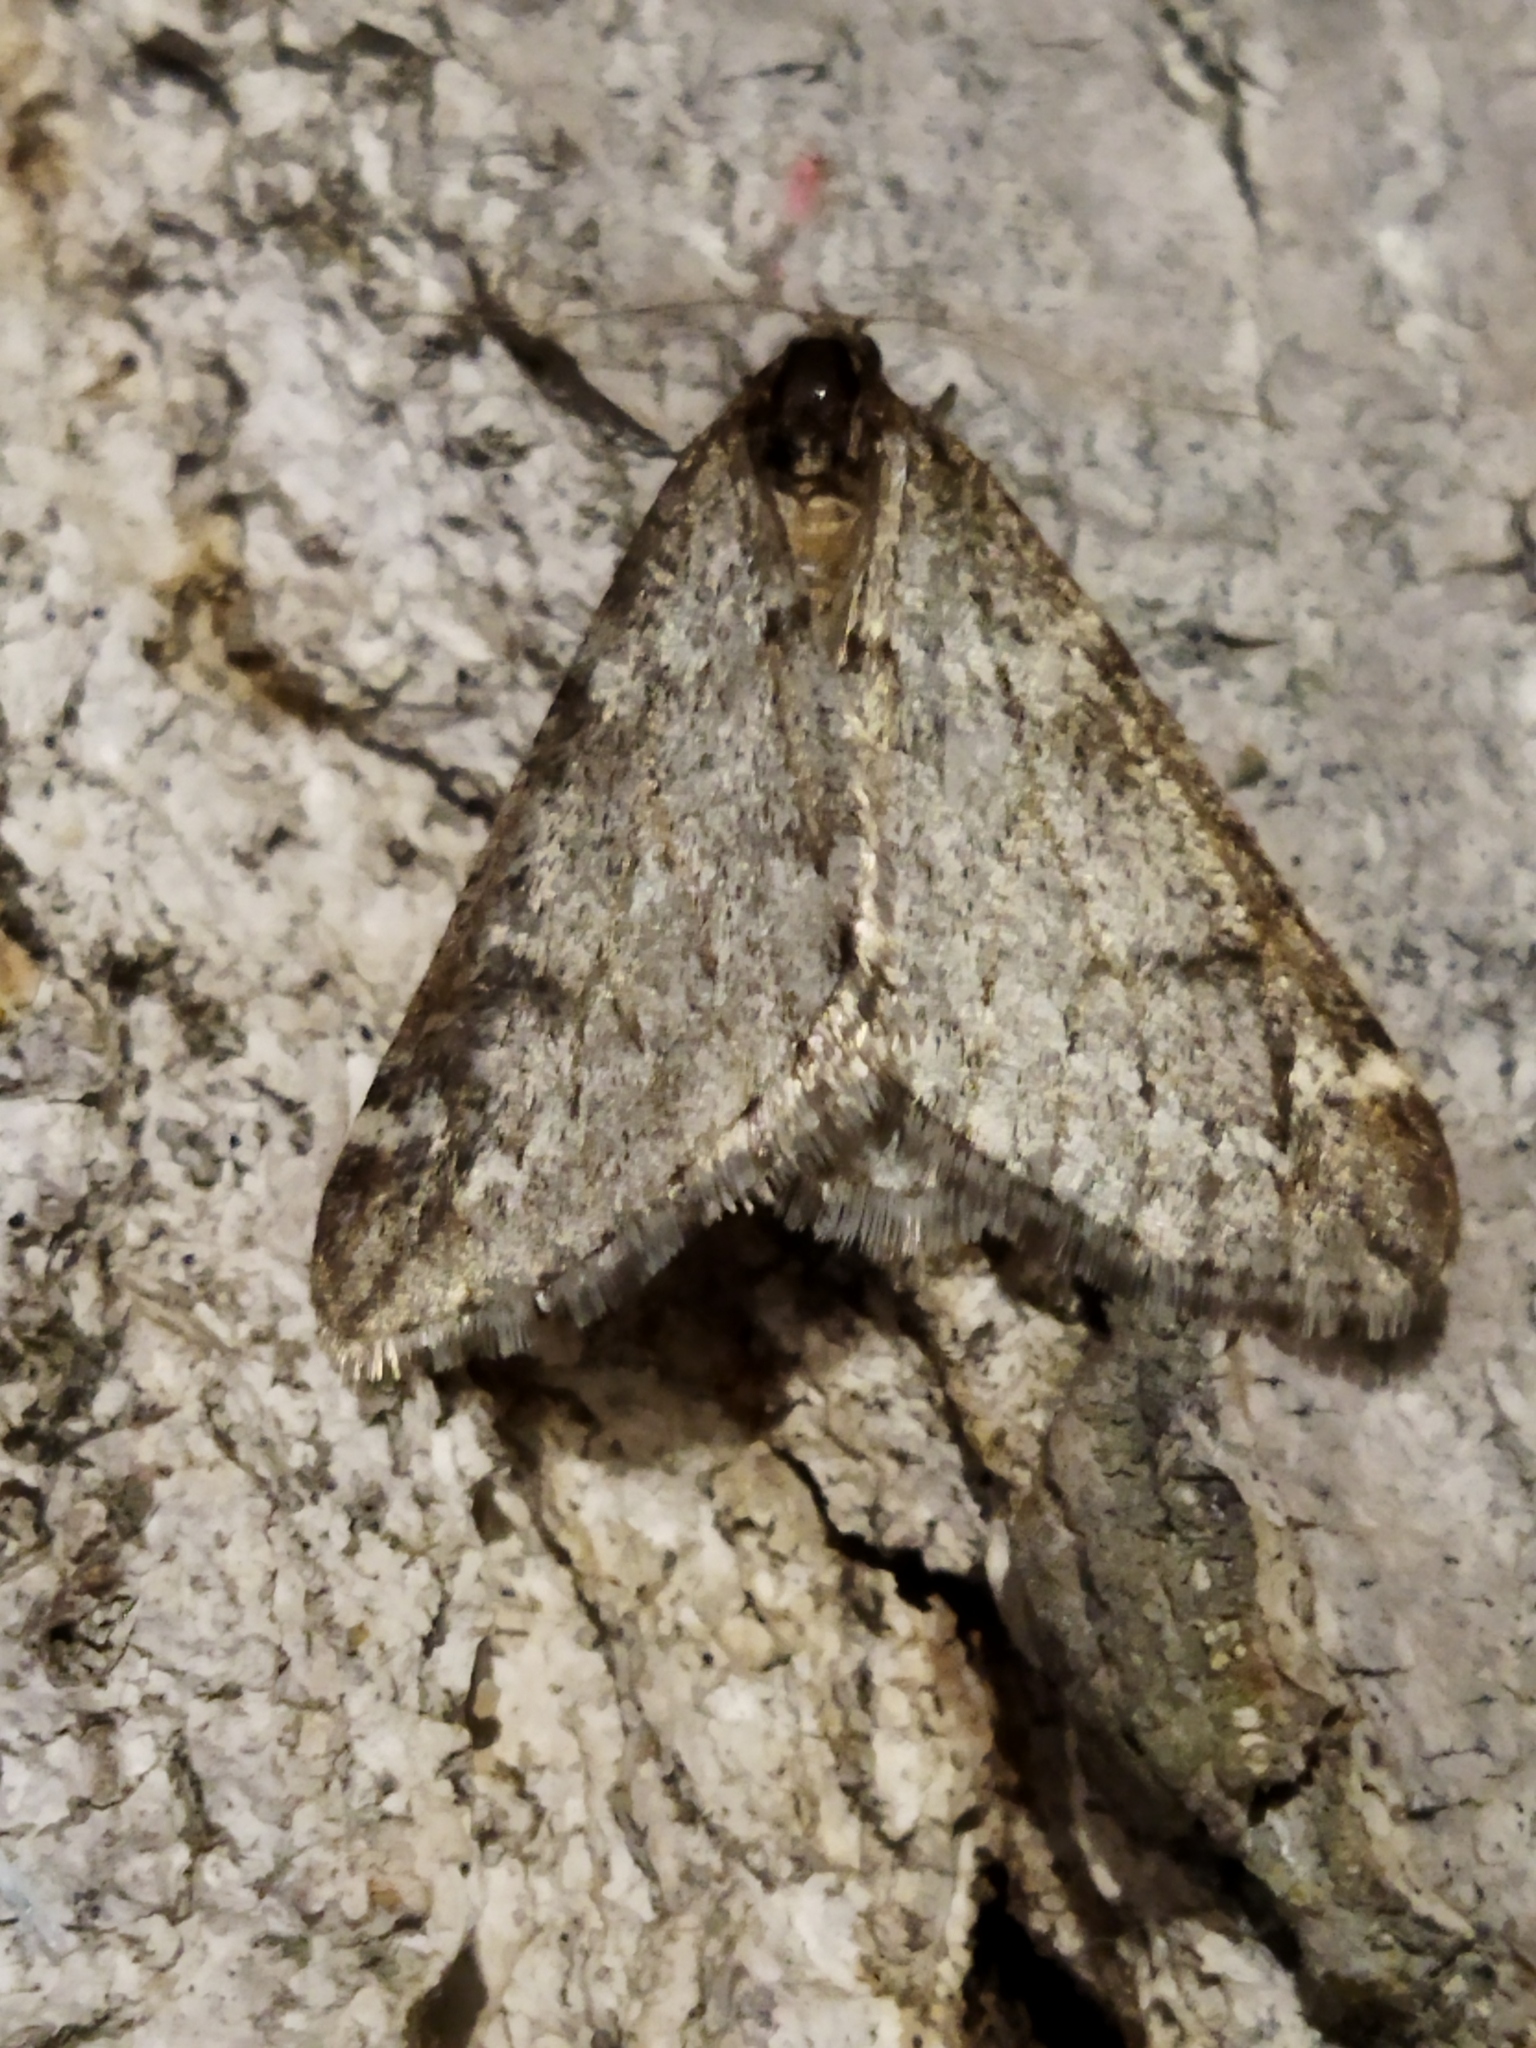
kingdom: Animalia
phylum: Arthropoda
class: Insecta
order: Lepidoptera
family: Geometridae
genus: Alsophila
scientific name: Alsophila aescularia
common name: March moth
